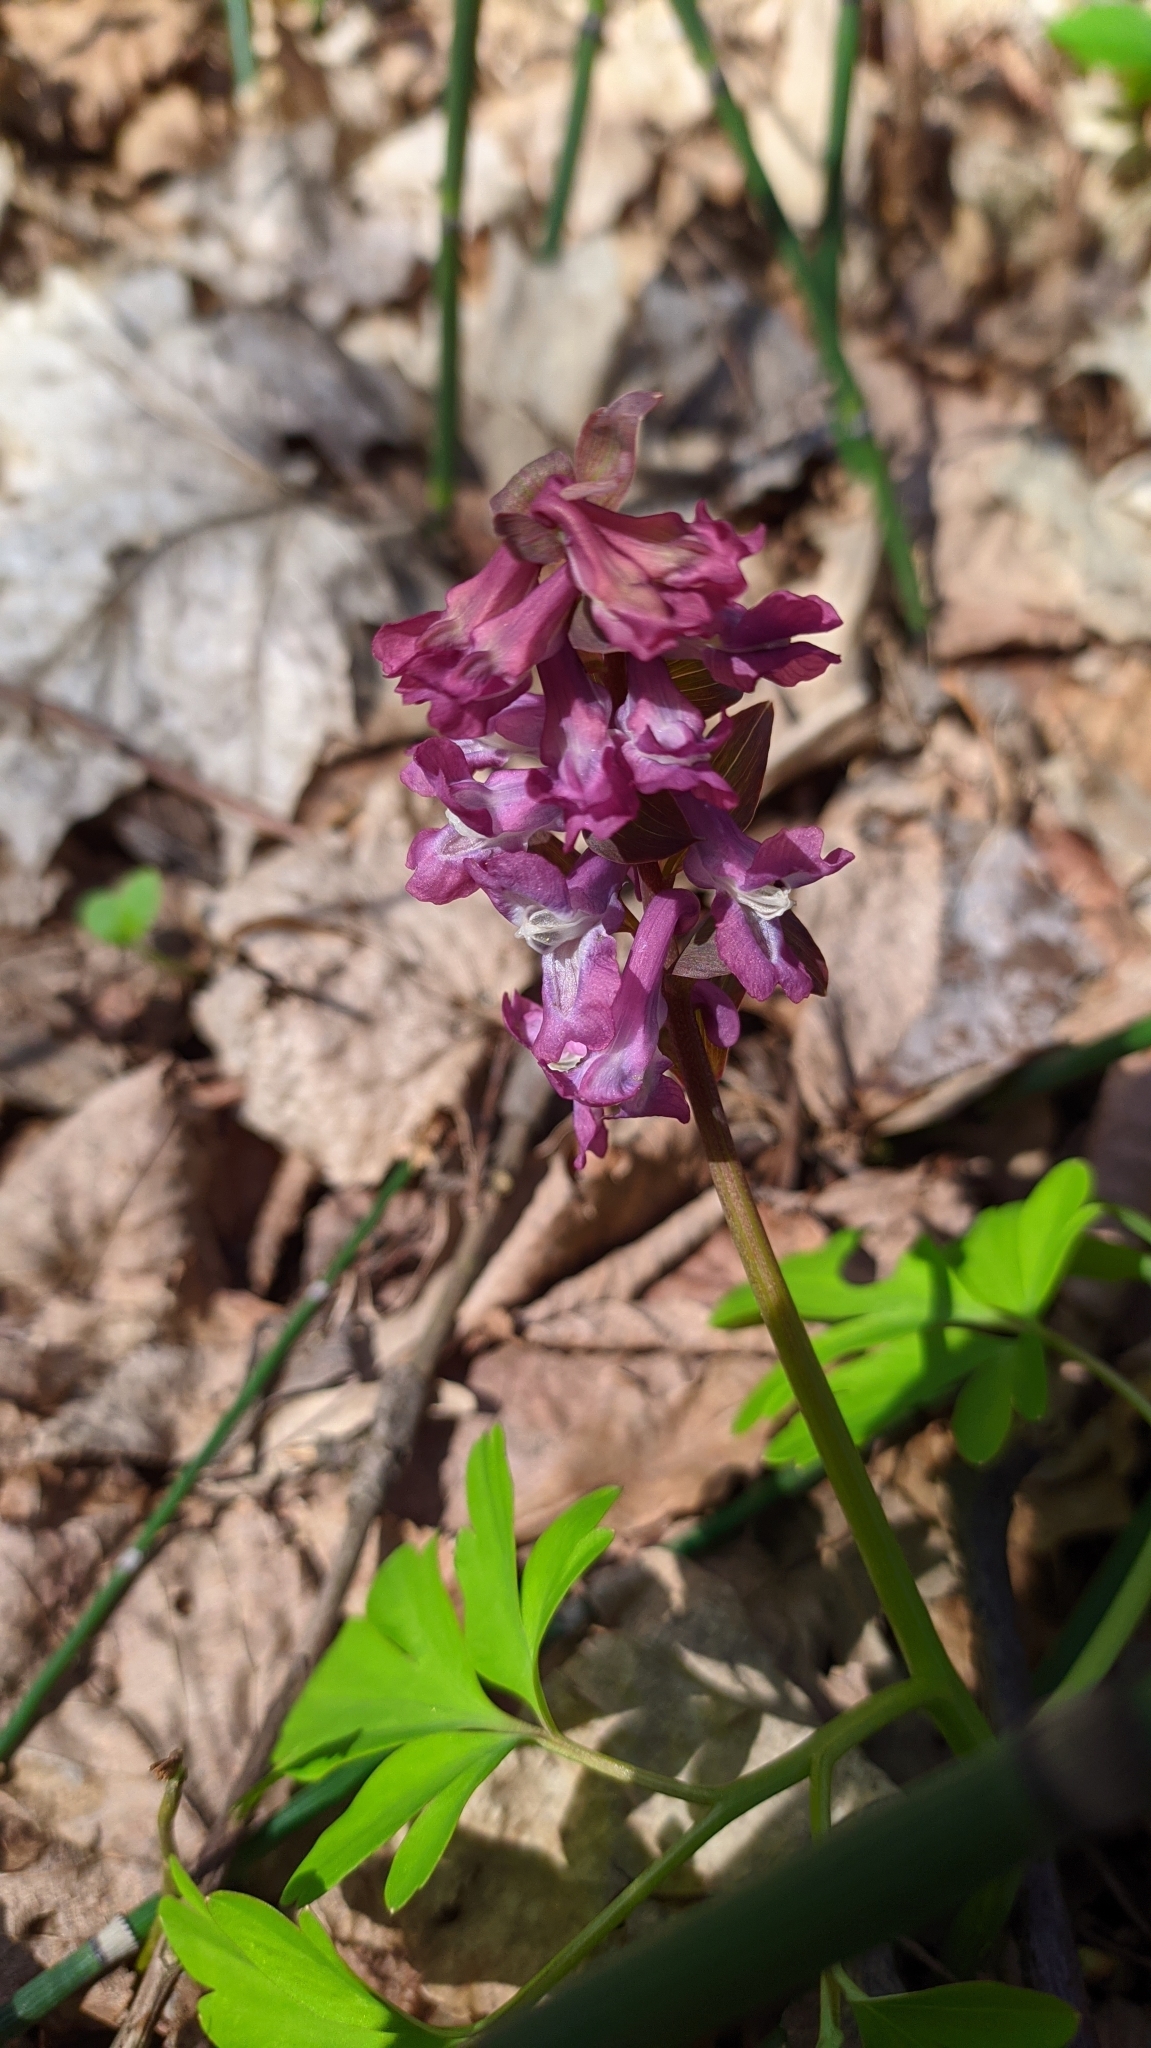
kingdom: Plantae
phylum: Tracheophyta
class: Magnoliopsida
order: Ranunculales
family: Papaveraceae
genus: Corydalis
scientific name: Corydalis cava
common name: Hollowroot
